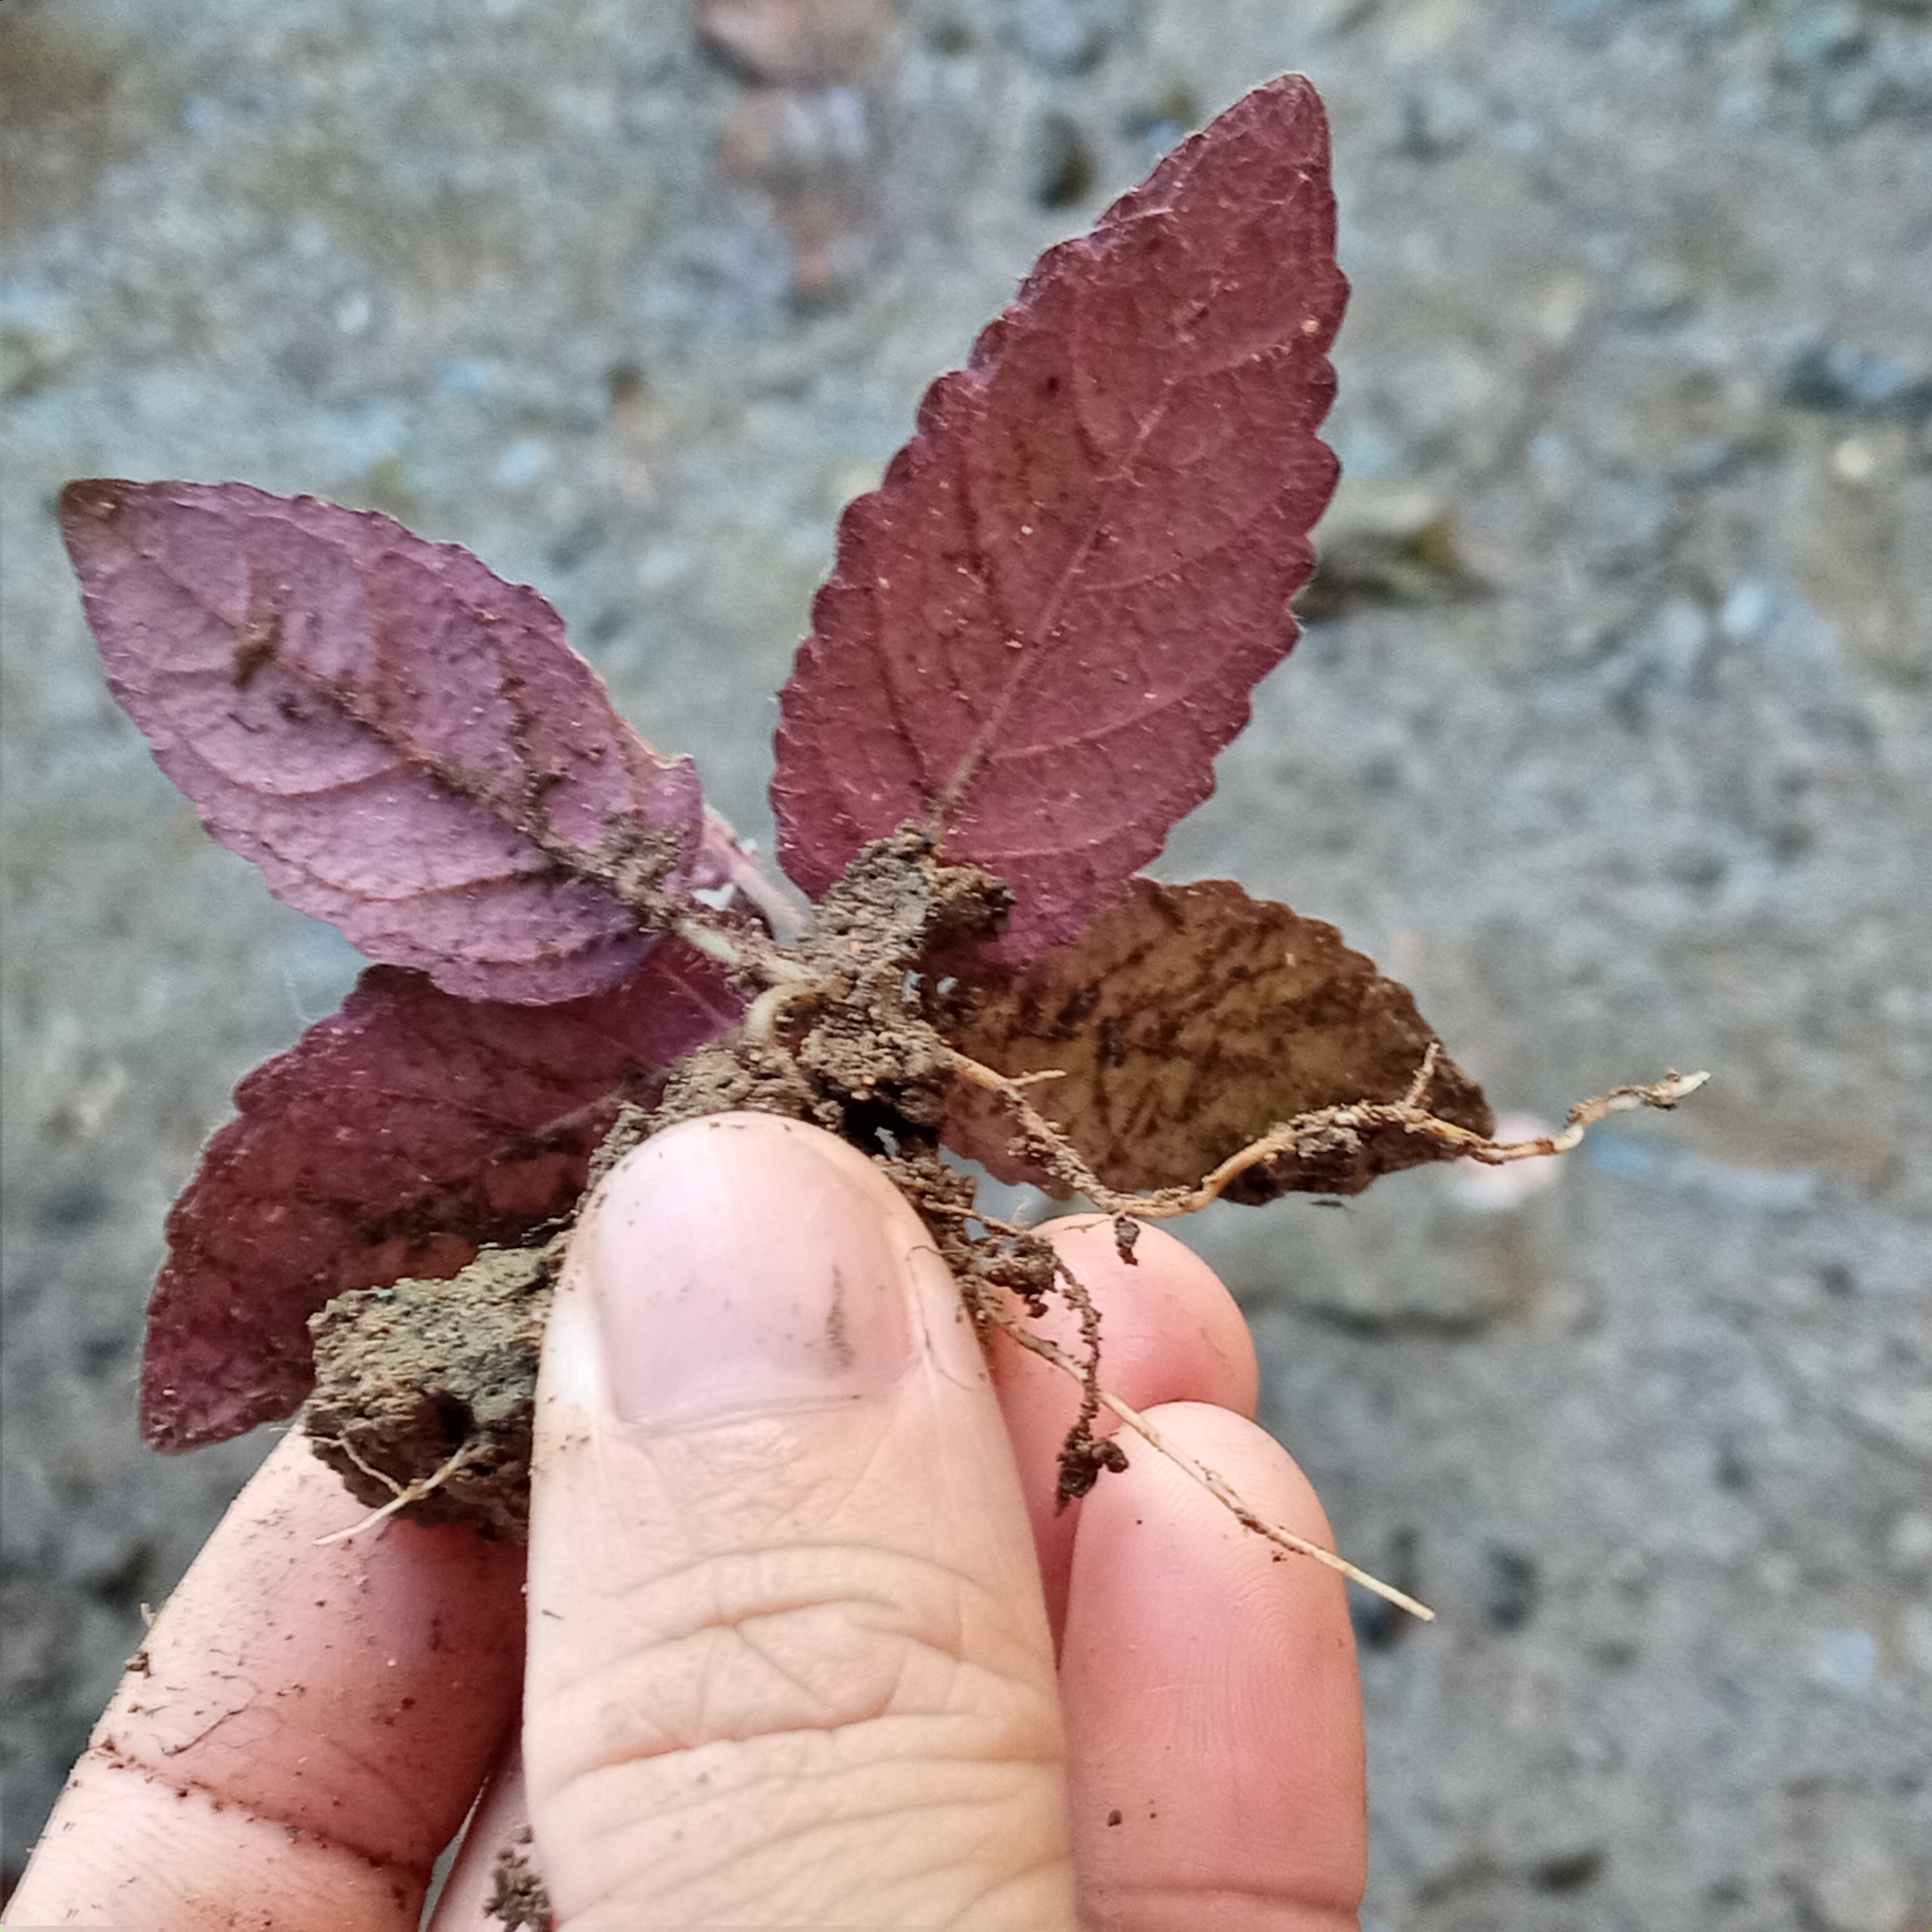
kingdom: Plantae
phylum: Tracheophyta
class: Magnoliopsida
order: Lamiales
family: Acanthaceae
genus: Strobilanthes
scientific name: Strobilanthes reptans
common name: Acanthaceae
